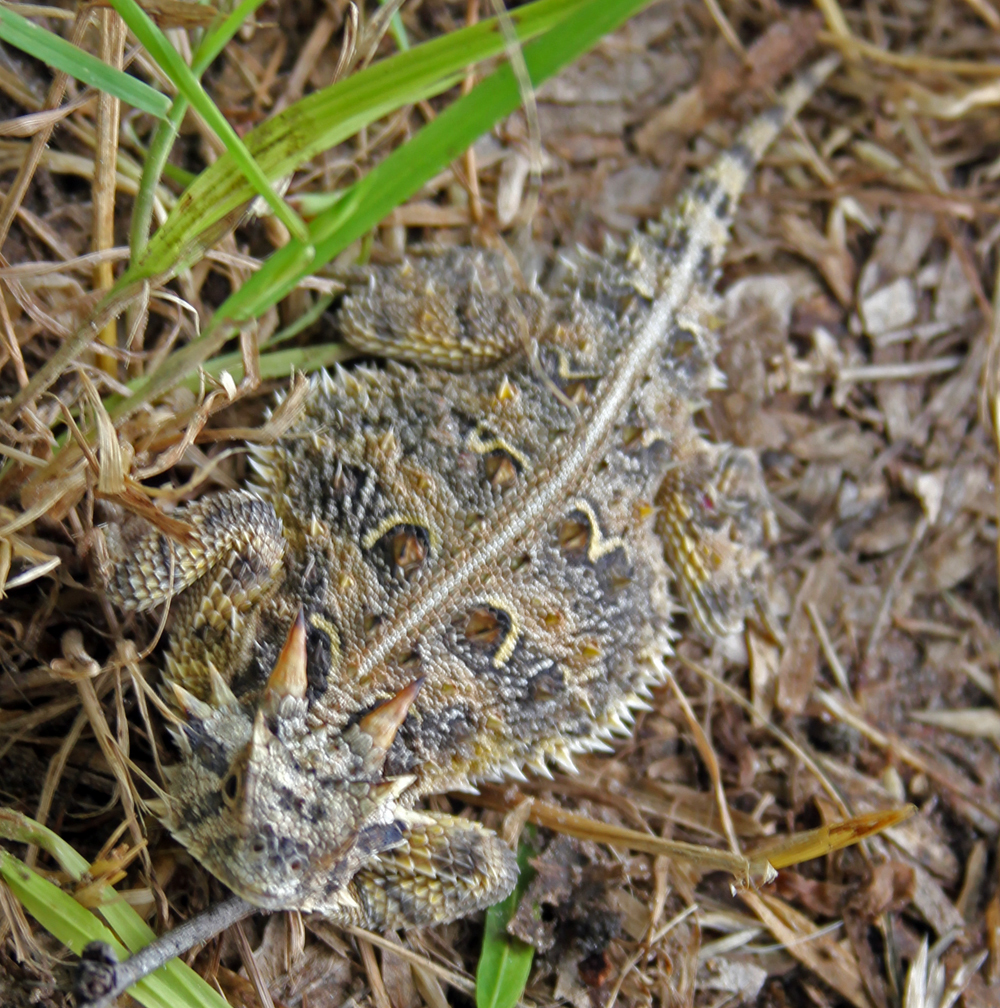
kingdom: Animalia
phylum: Chordata
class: Squamata
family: Phrynosomatidae
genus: Phrynosoma
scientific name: Phrynosoma cornutum
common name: Texas horned lizard
